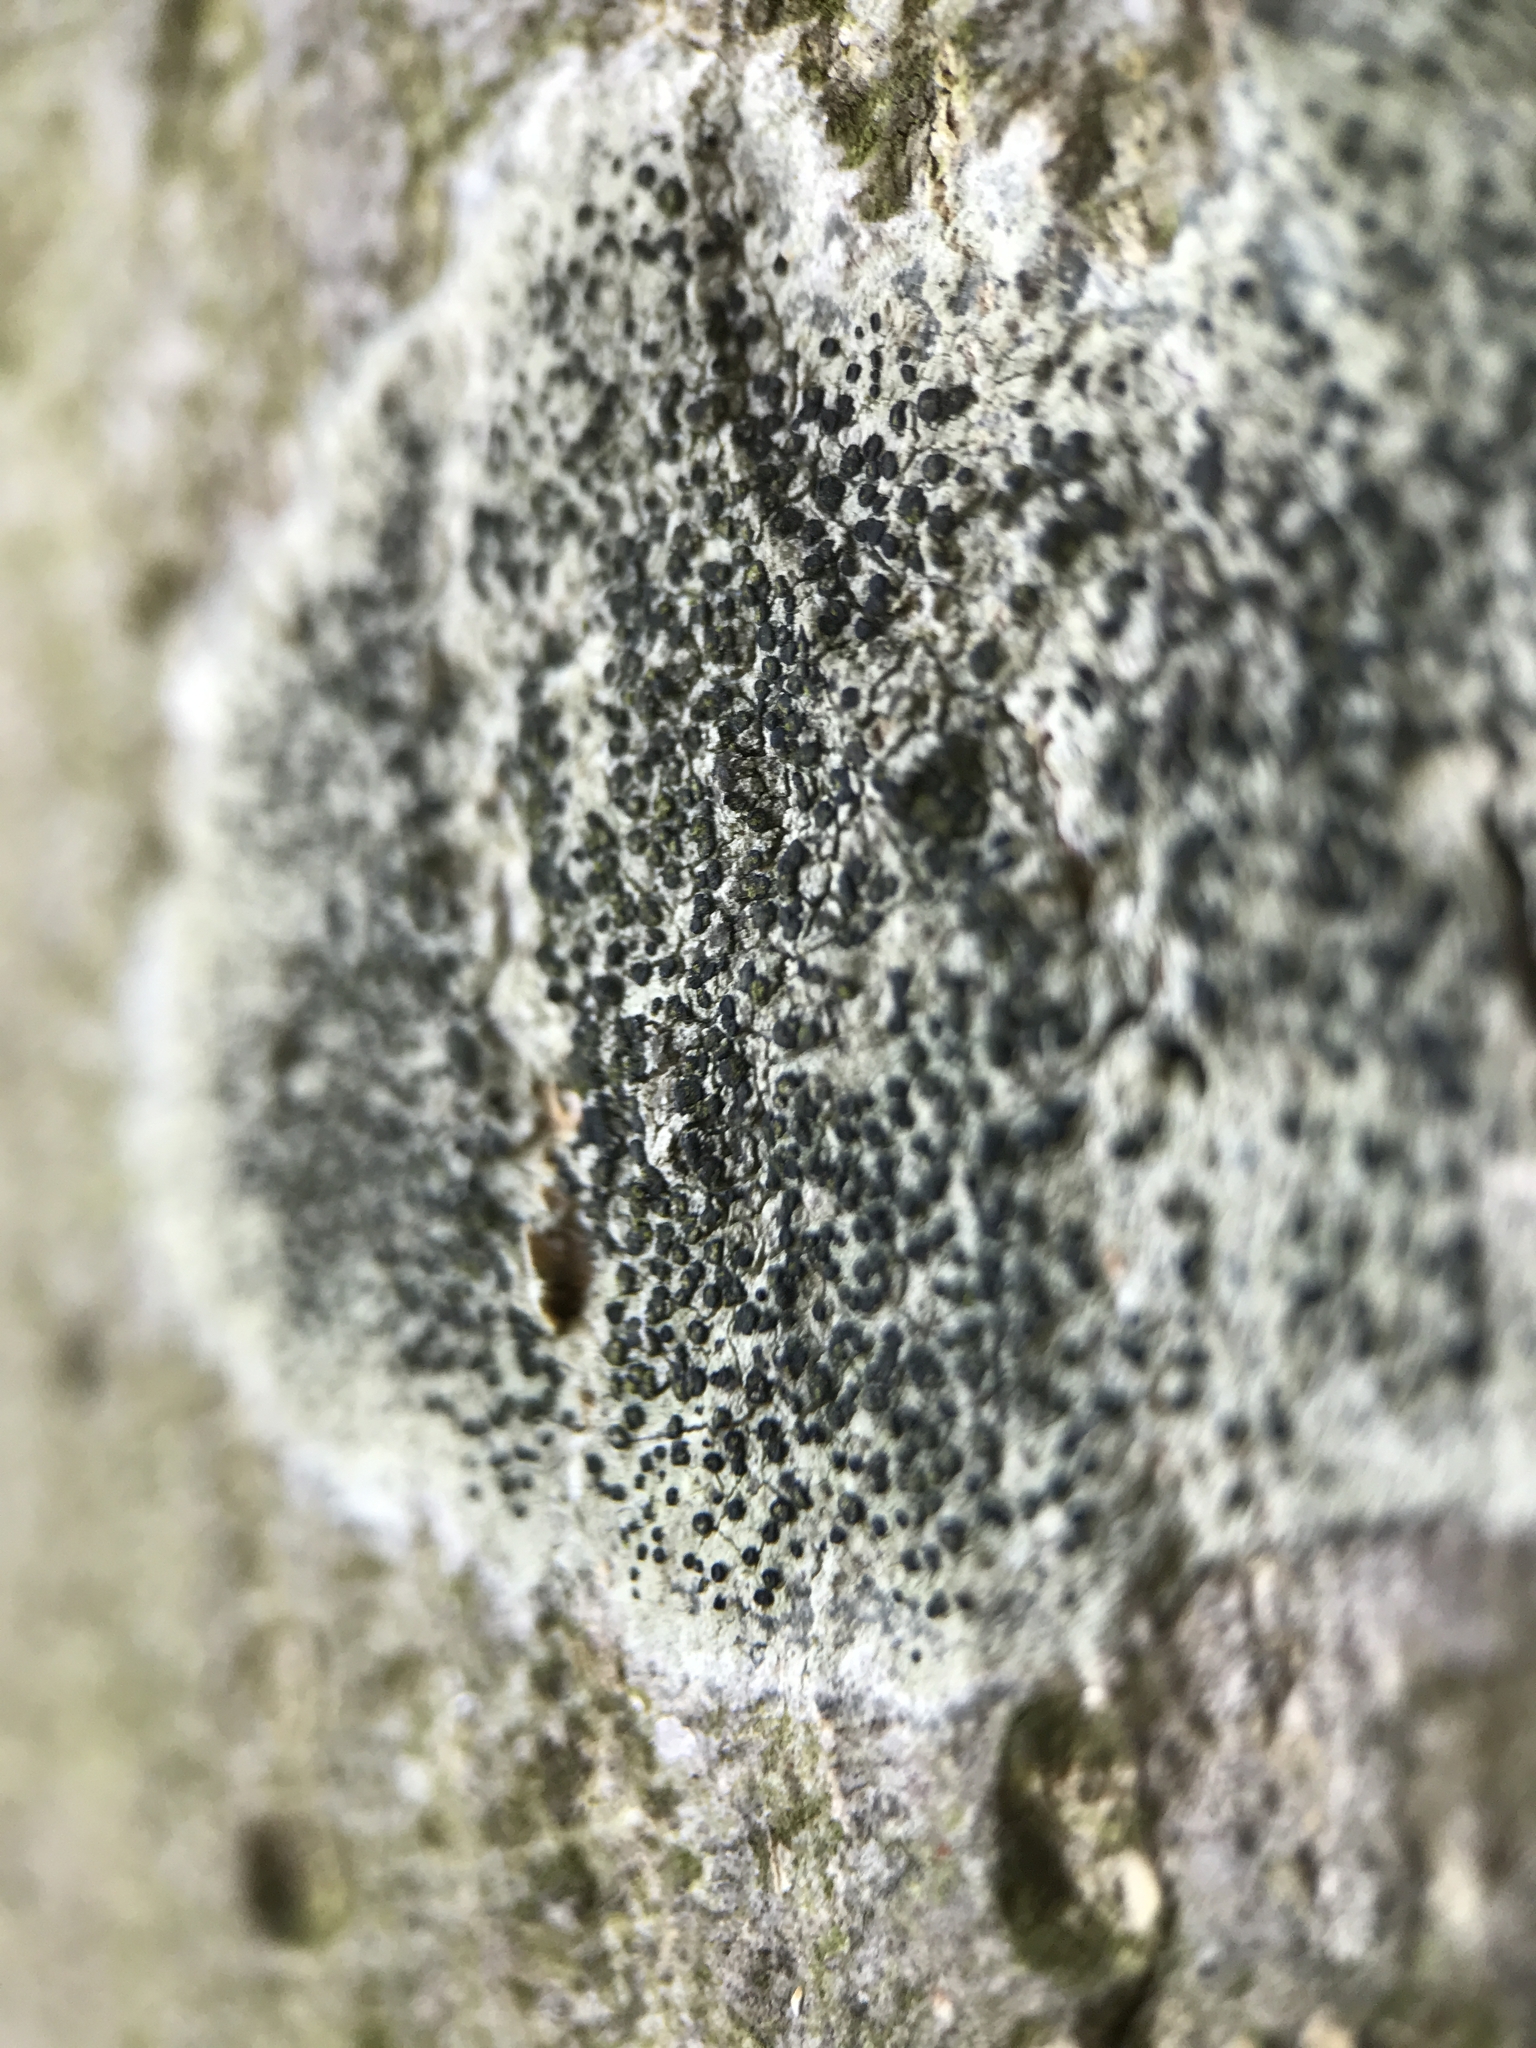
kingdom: Fungi
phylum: Ascomycota
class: Lecanoromycetes
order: Lecanorales
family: Lecanoraceae
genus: Lecidella
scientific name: Lecidella elaeochroma
